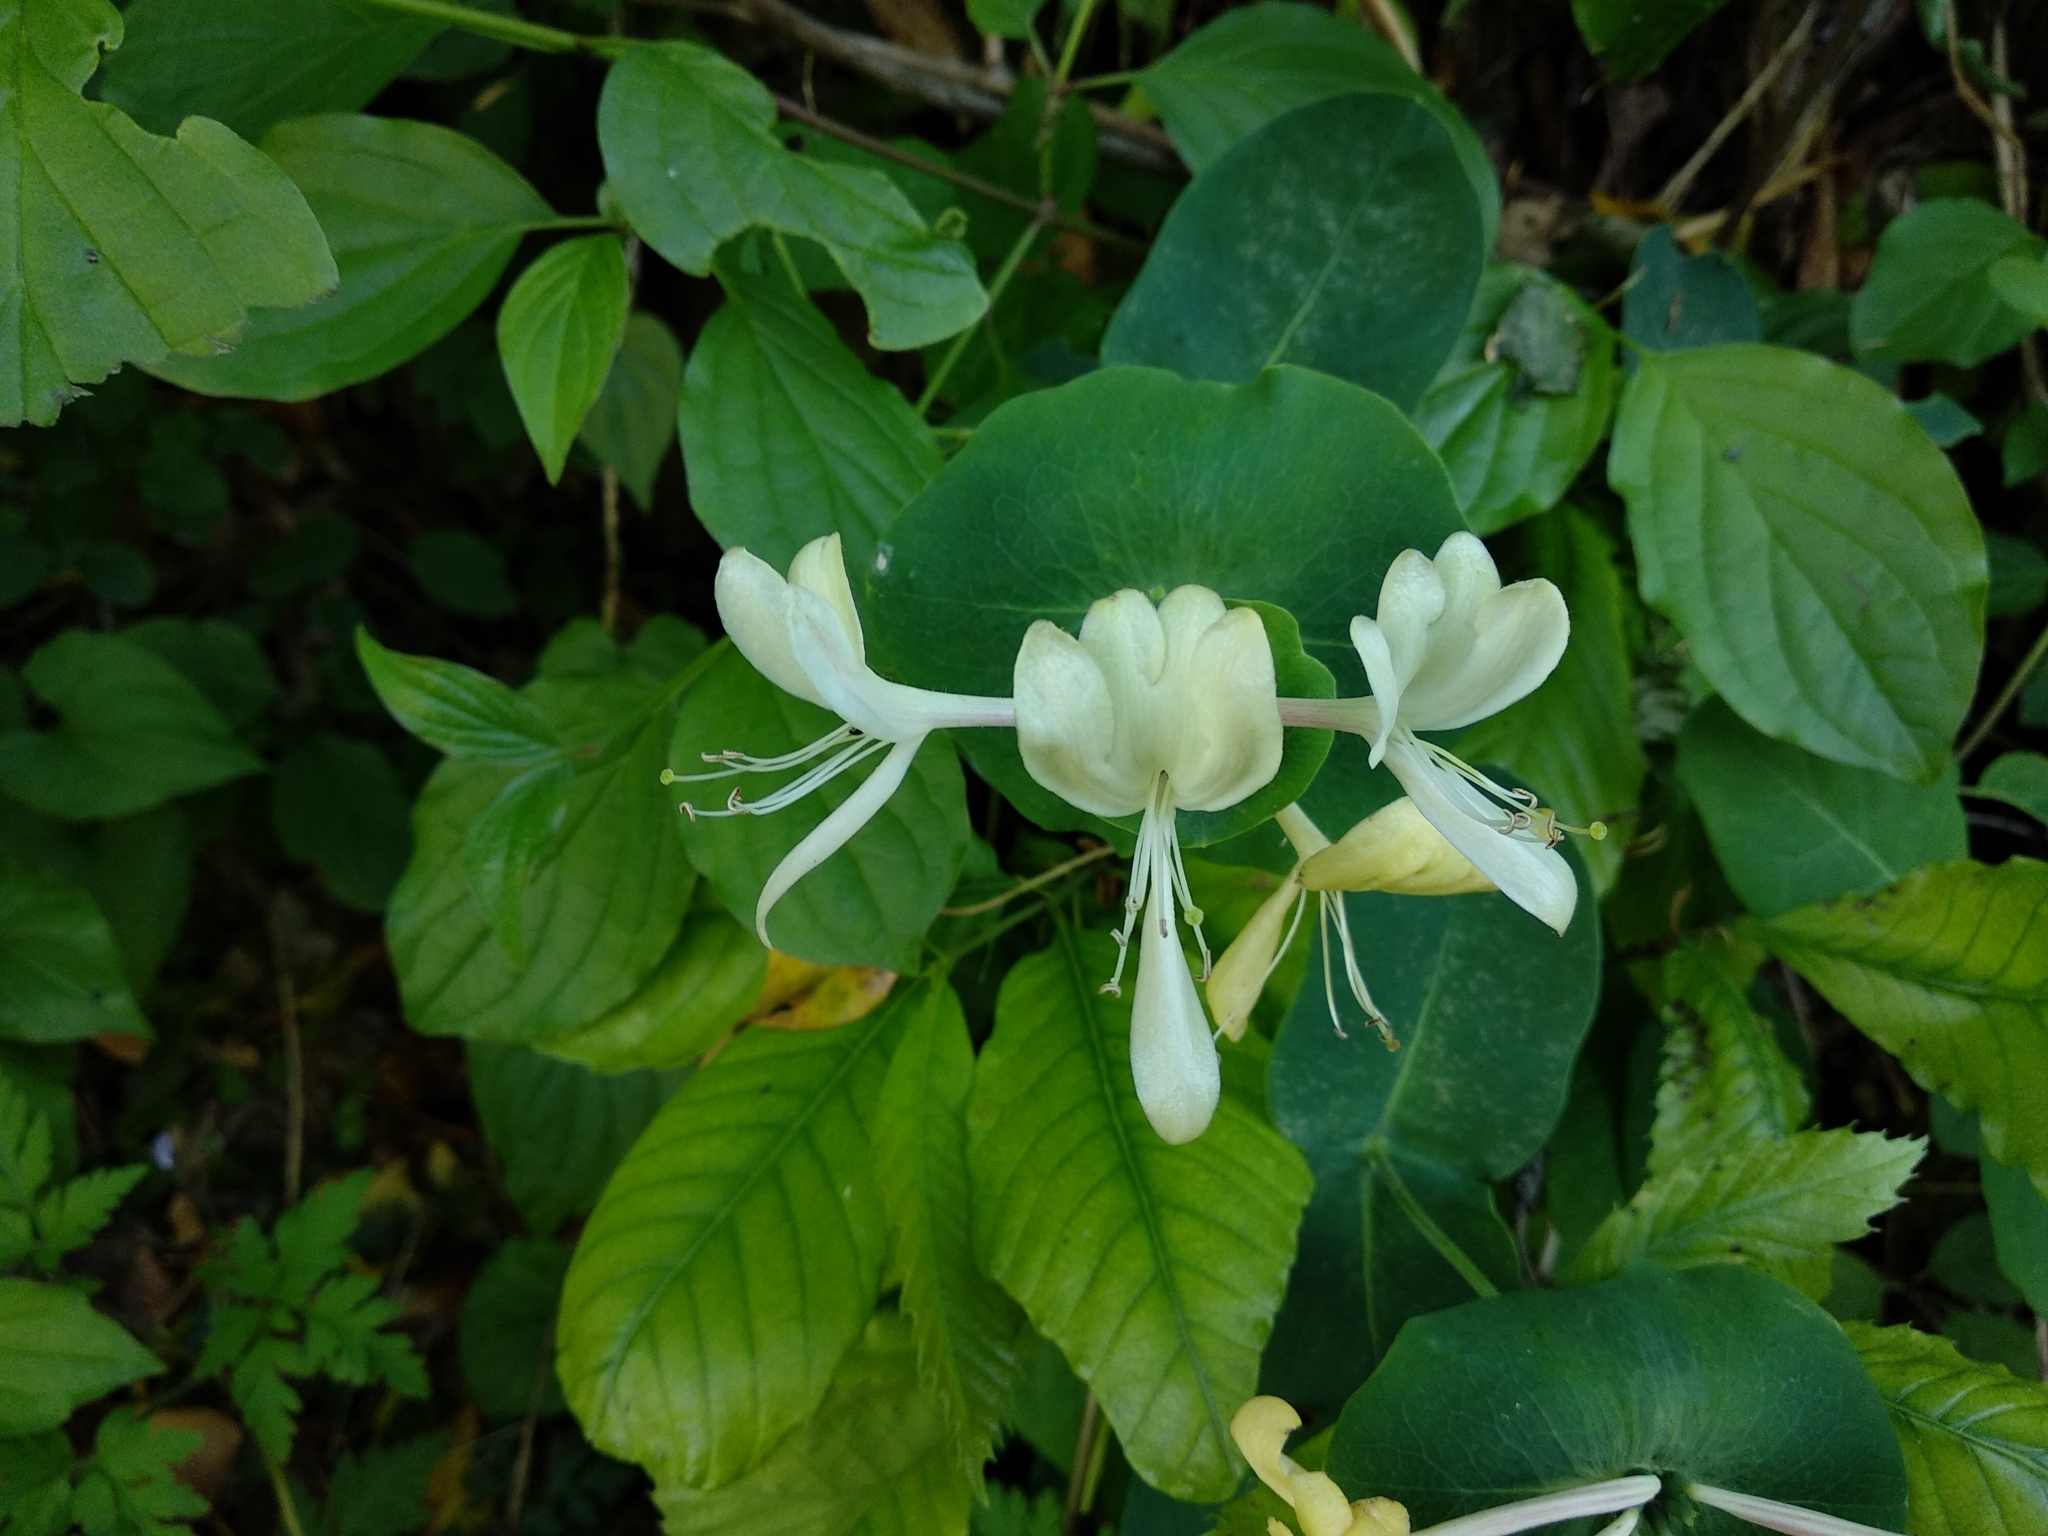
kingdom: Plantae
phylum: Tracheophyta
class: Magnoliopsida
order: Dipsacales
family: Caprifoliaceae
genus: Lonicera
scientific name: Lonicera caprifolium
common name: Perfoliate honeysuckle
